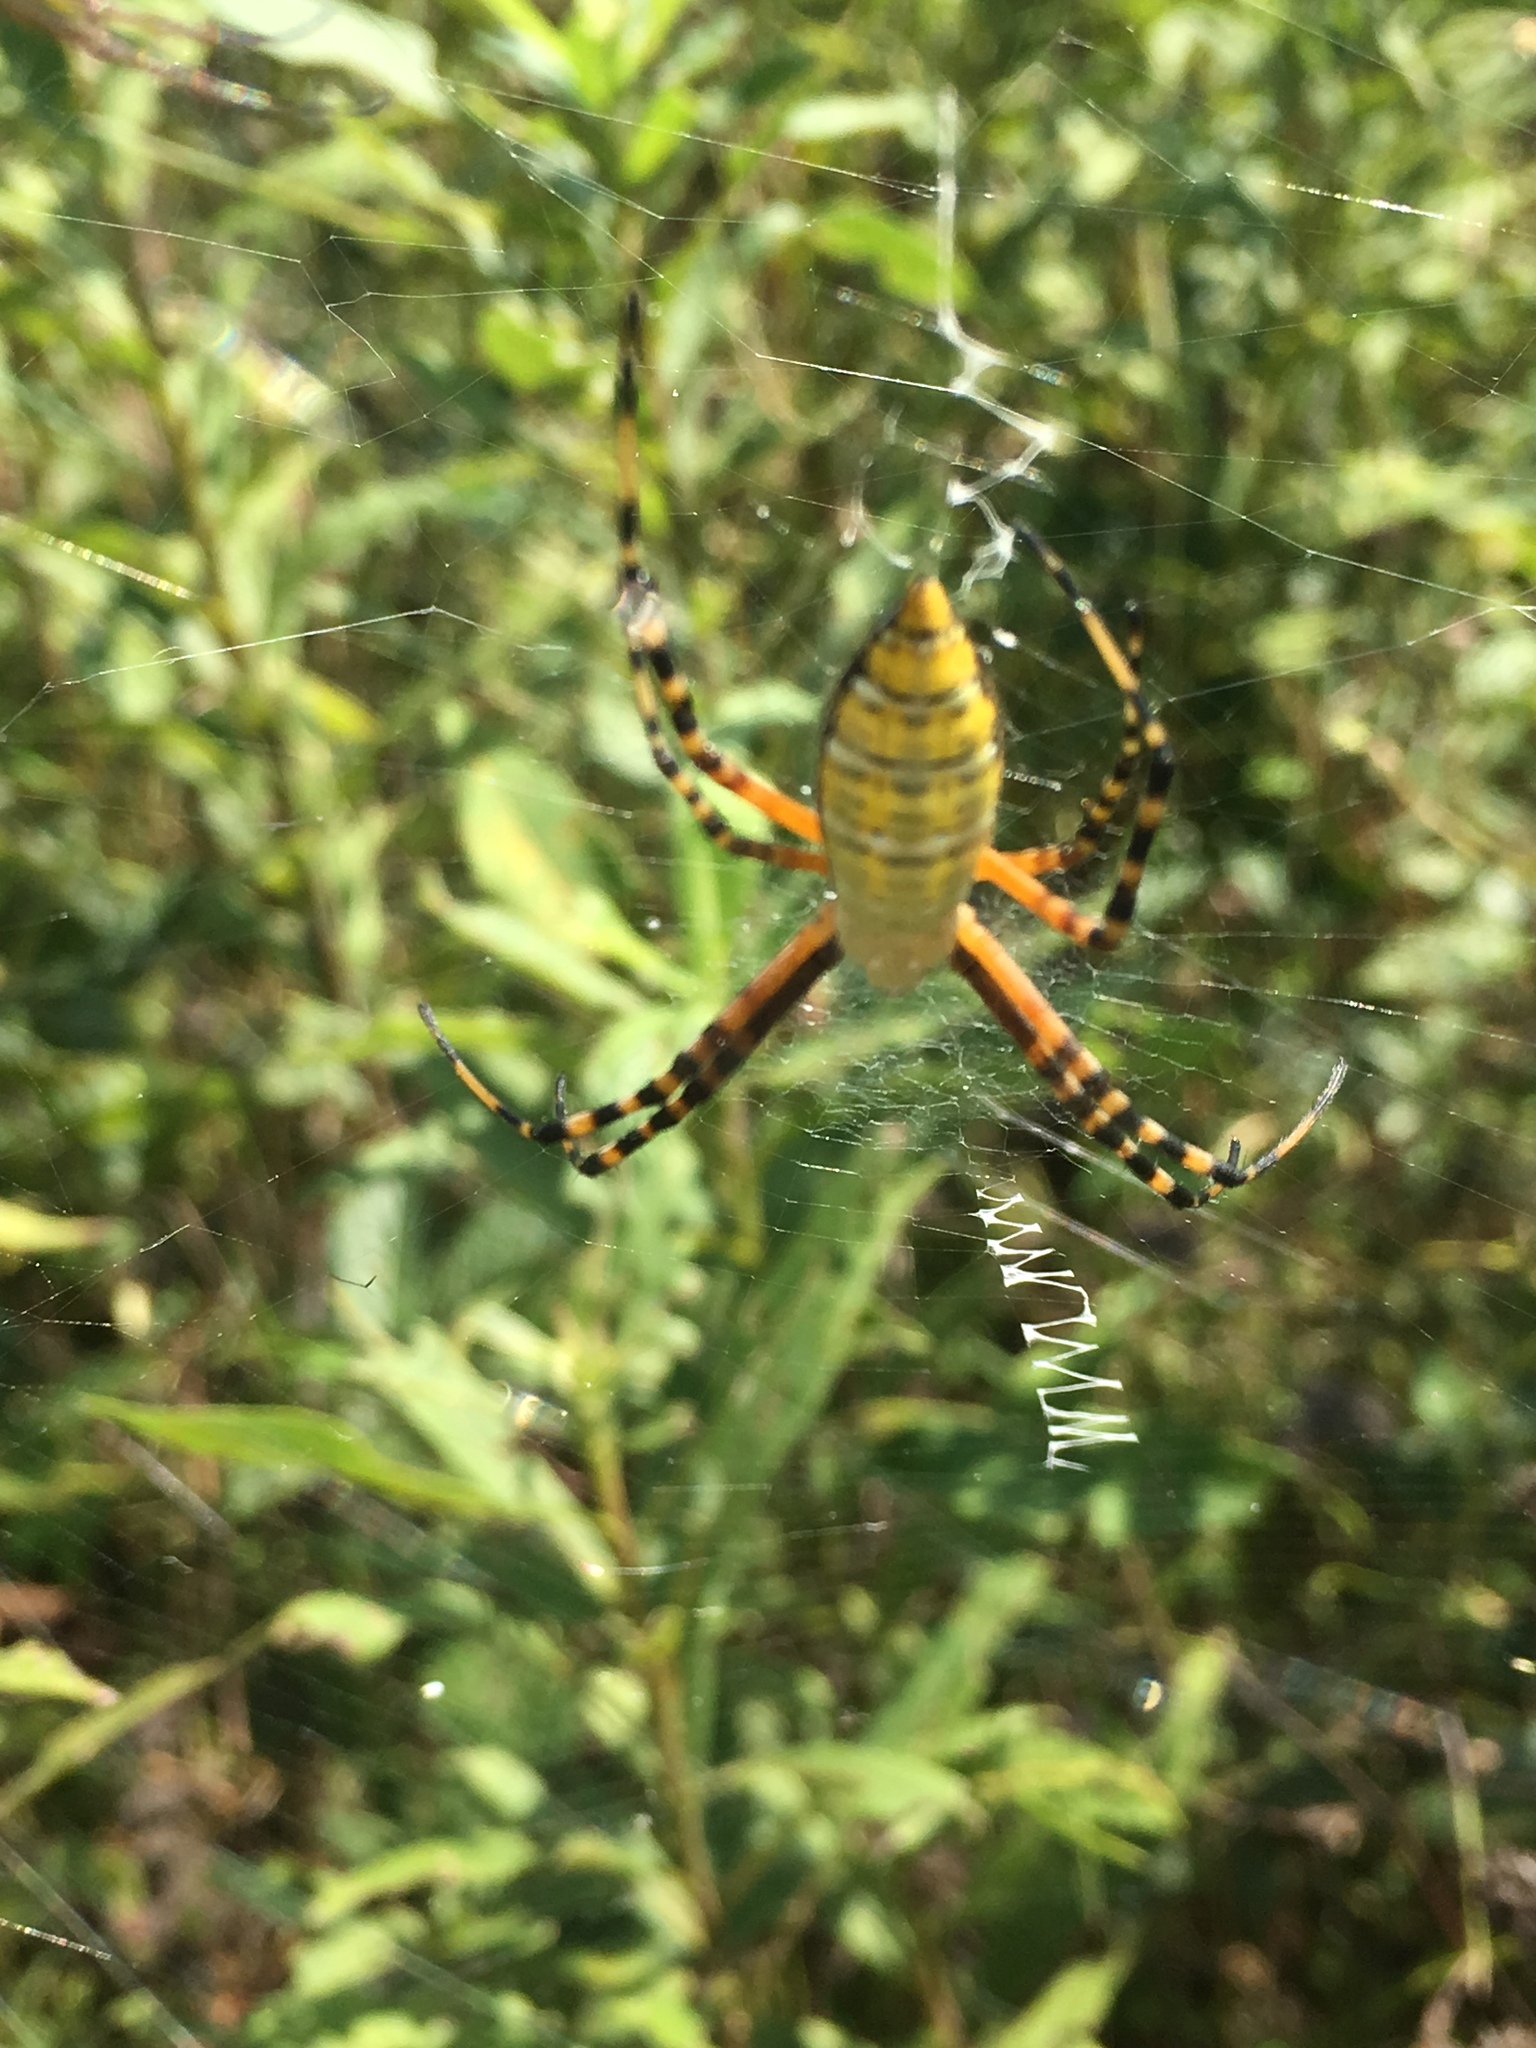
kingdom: Animalia
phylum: Arthropoda
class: Arachnida
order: Araneae
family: Araneidae
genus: Argiope
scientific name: Argiope trifasciata
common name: Banded garden spider
